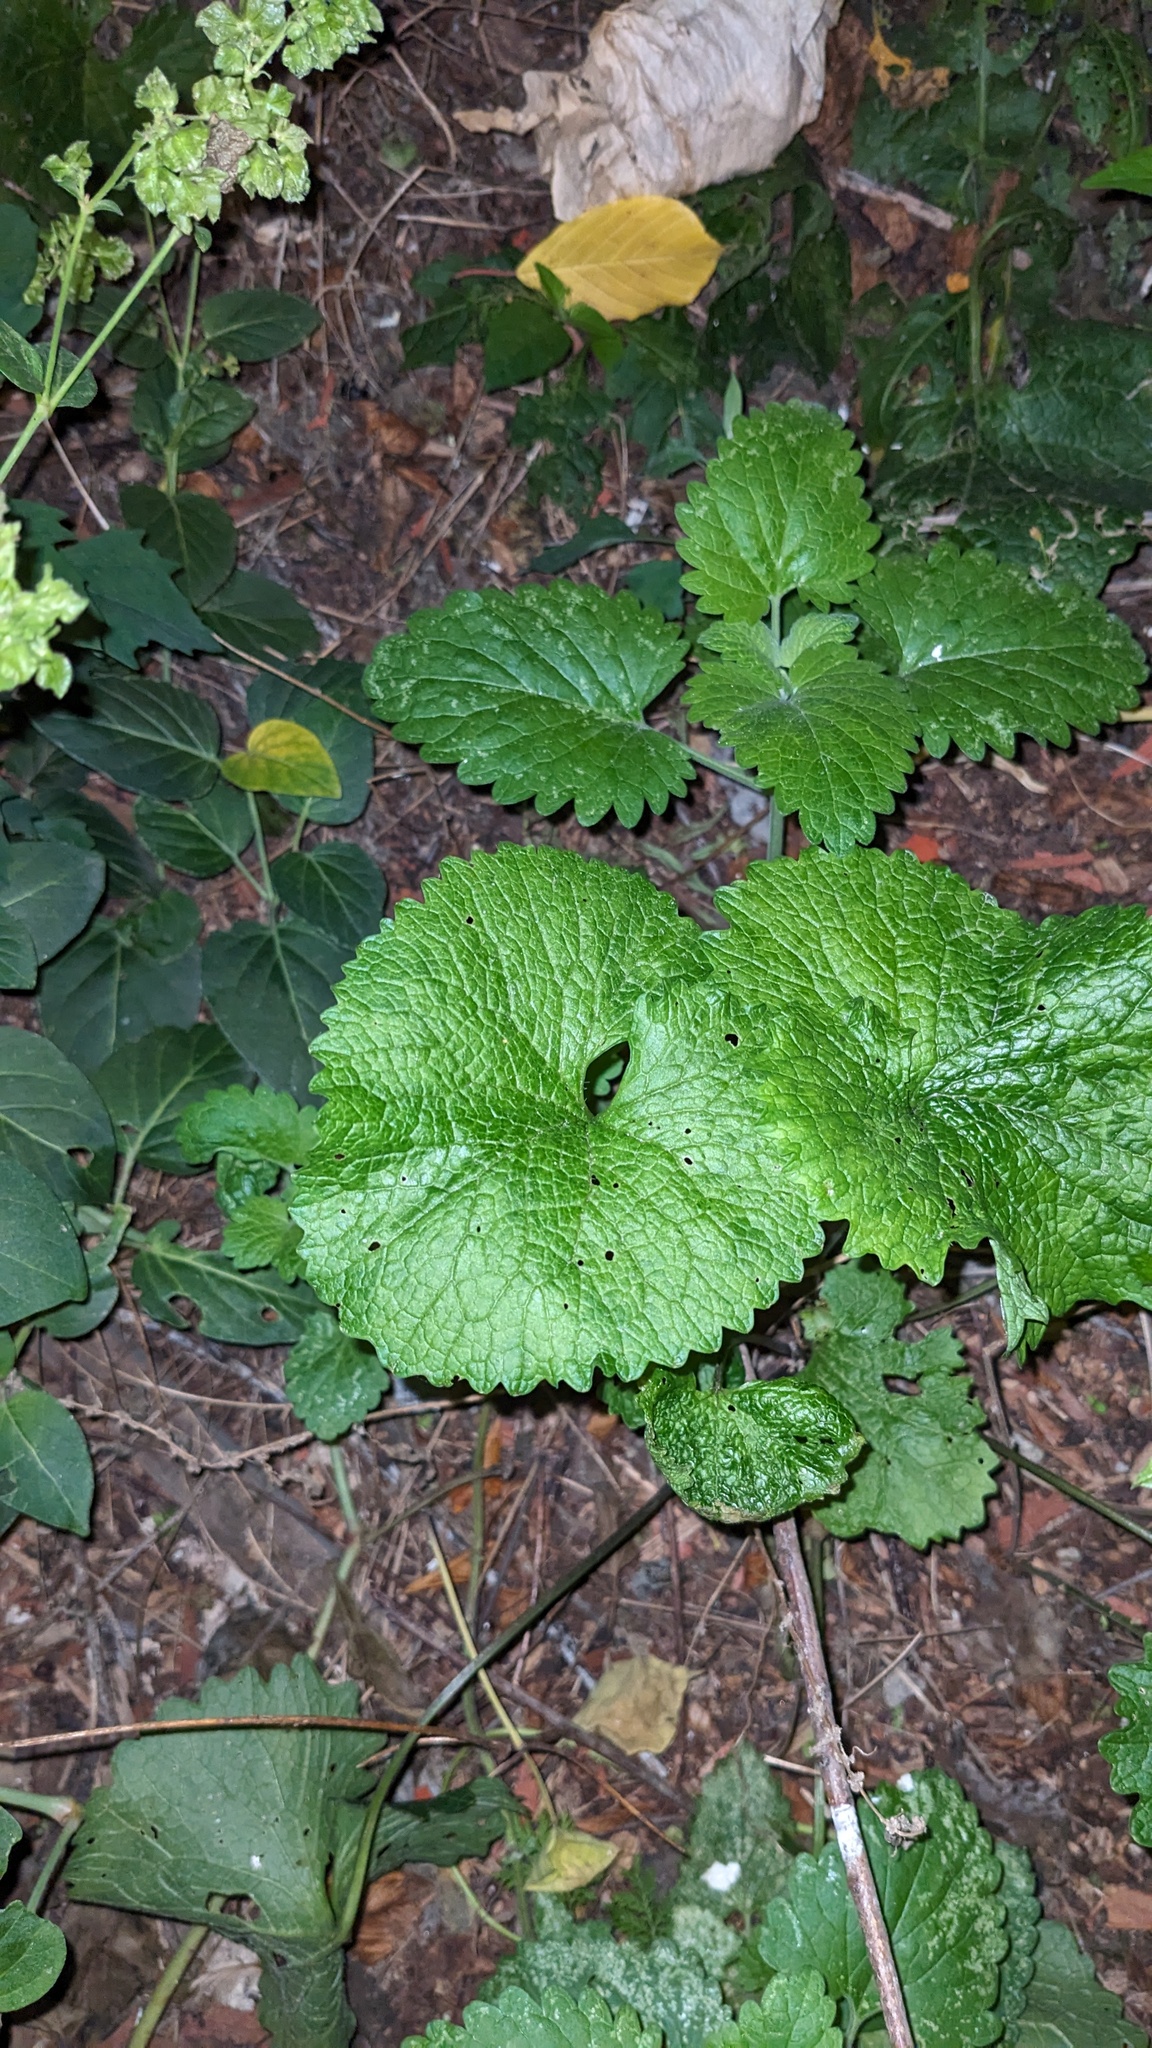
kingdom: Plantae
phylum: Tracheophyta
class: Magnoliopsida
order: Brassicales
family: Brassicaceae
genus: Alliaria
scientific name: Alliaria petiolata
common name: Garlic mustard
